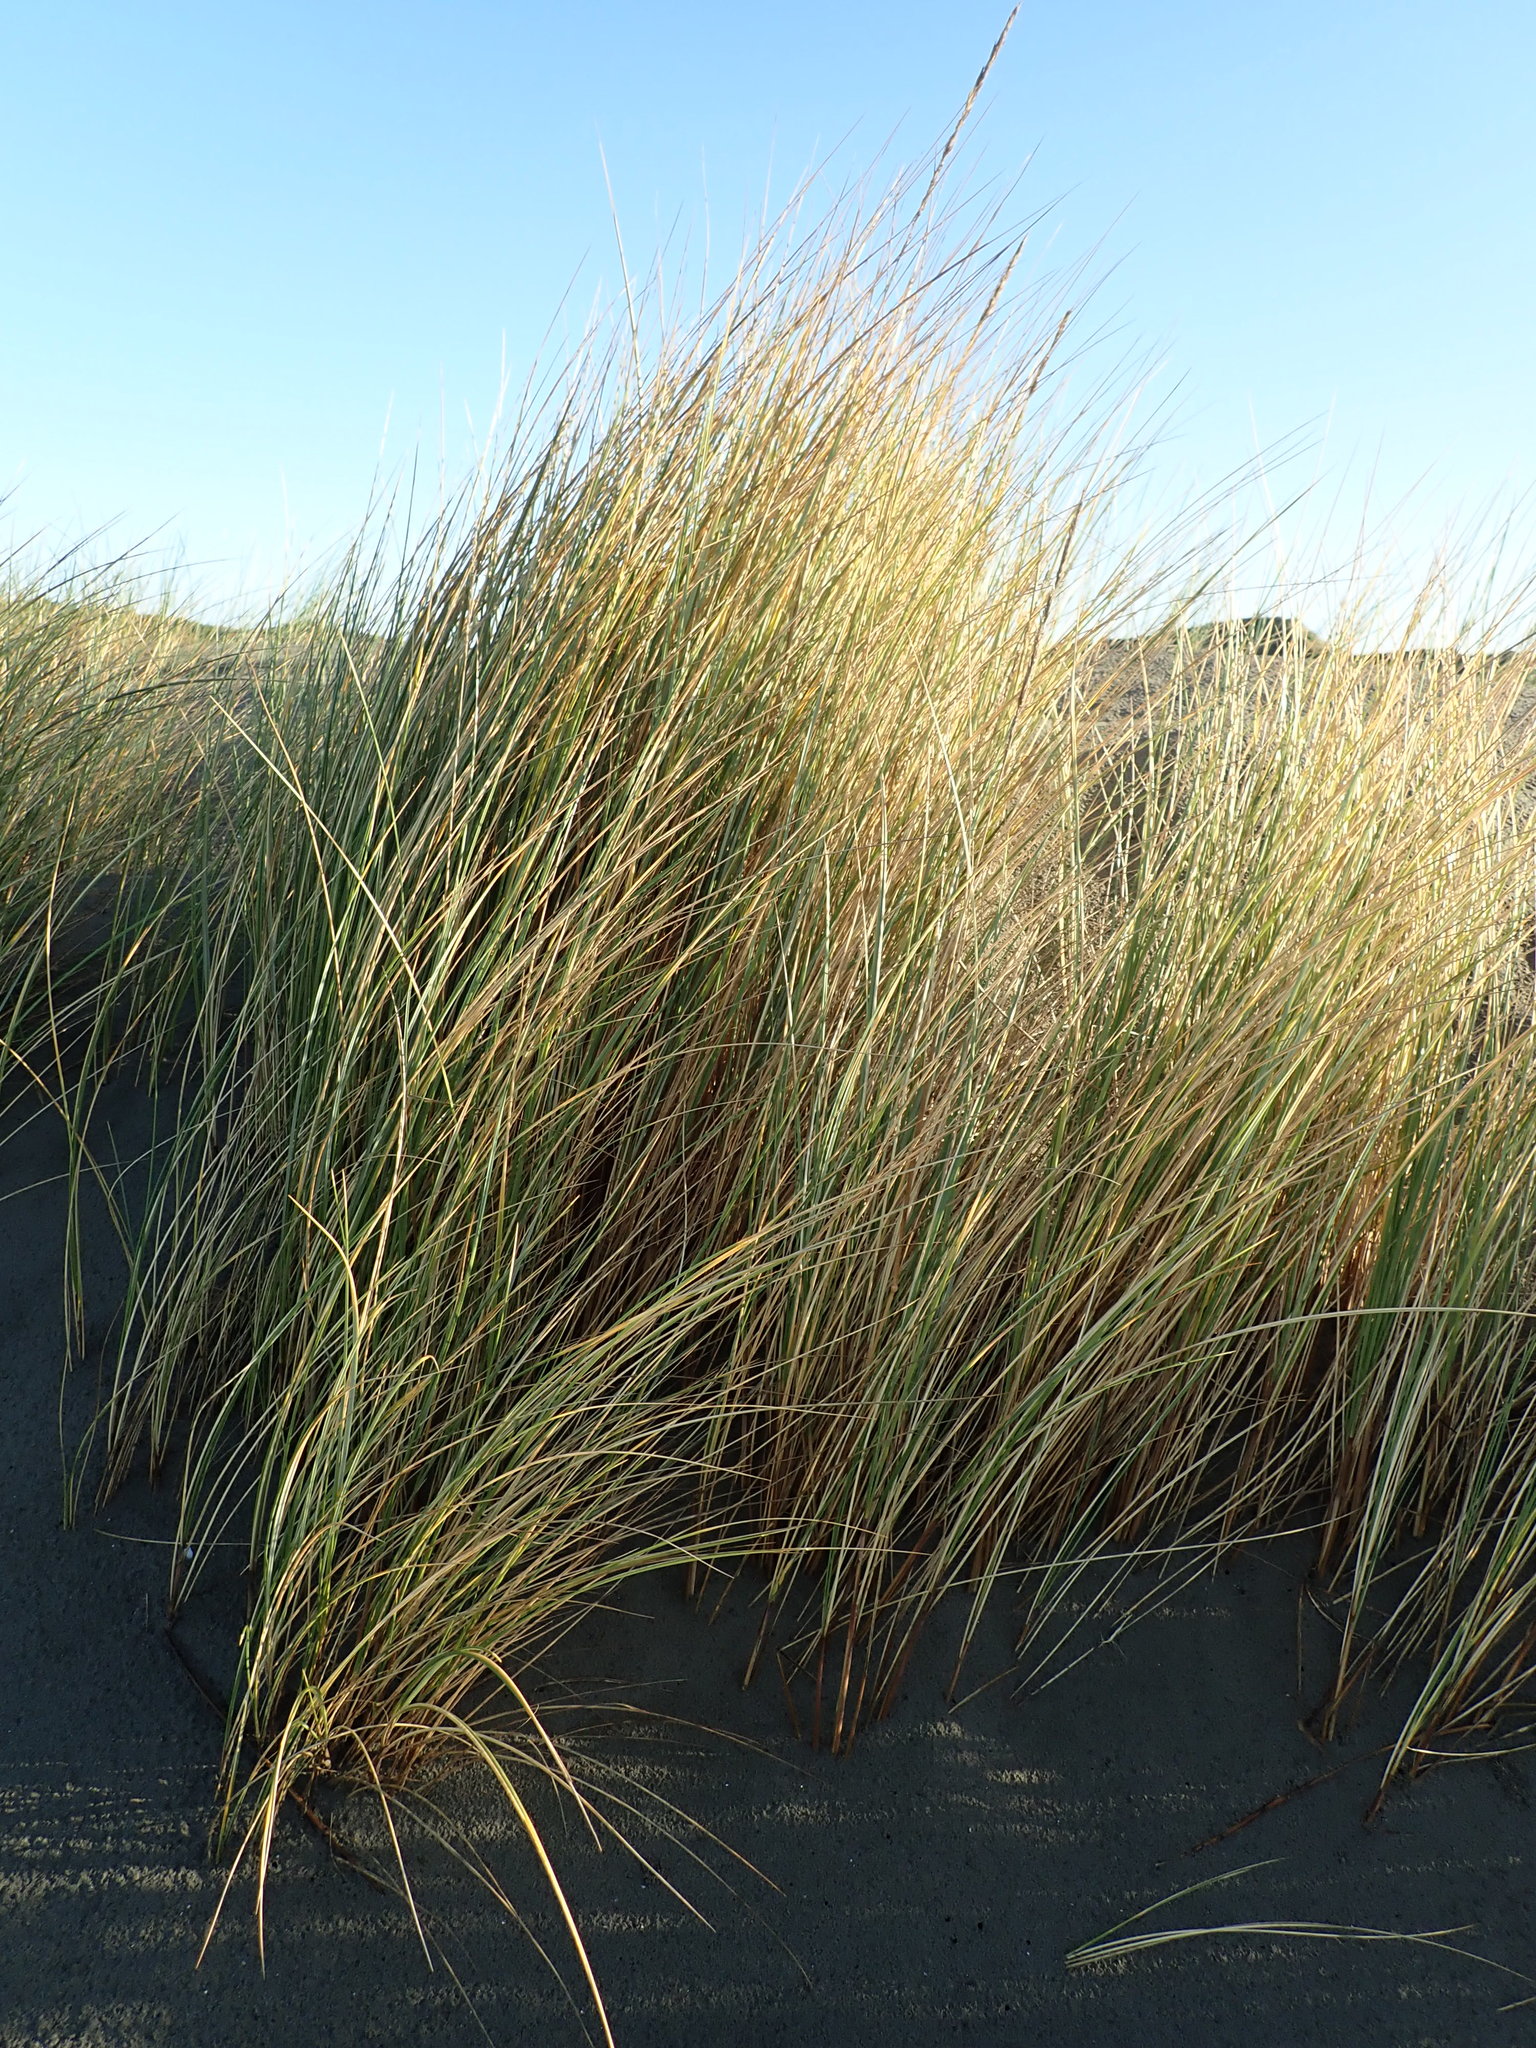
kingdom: Plantae
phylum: Tracheophyta
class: Liliopsida
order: Poales
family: Poaceae
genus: Calamagrostis
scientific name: Calamagrostis arenaria
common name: European beachgrass
